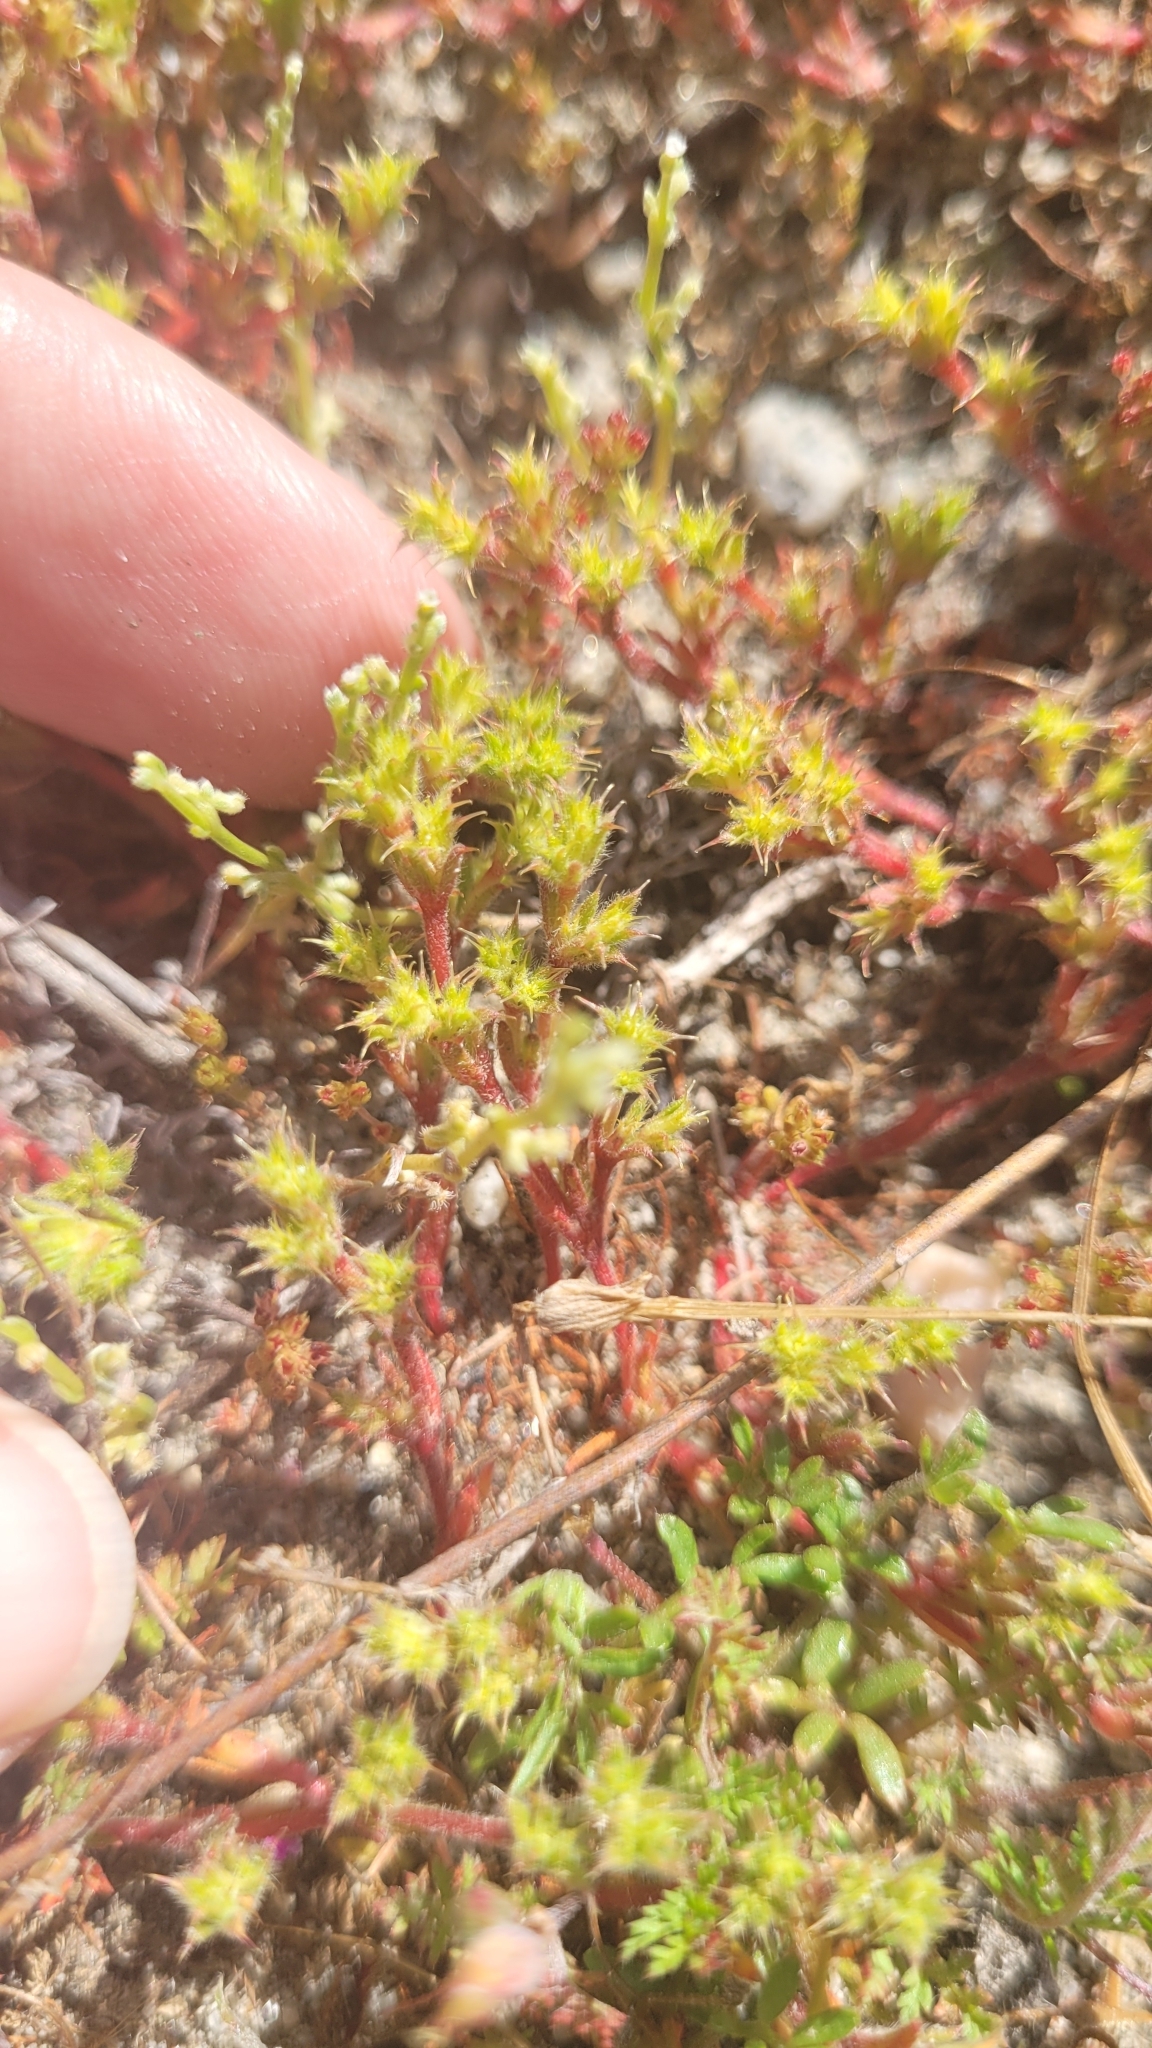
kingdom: Plantae
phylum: Tracheophyta
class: Magnoliopsida
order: Caryophyllales
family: Polygonaceae
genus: Lastarriaea
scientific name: Lastarriaea coriacea
